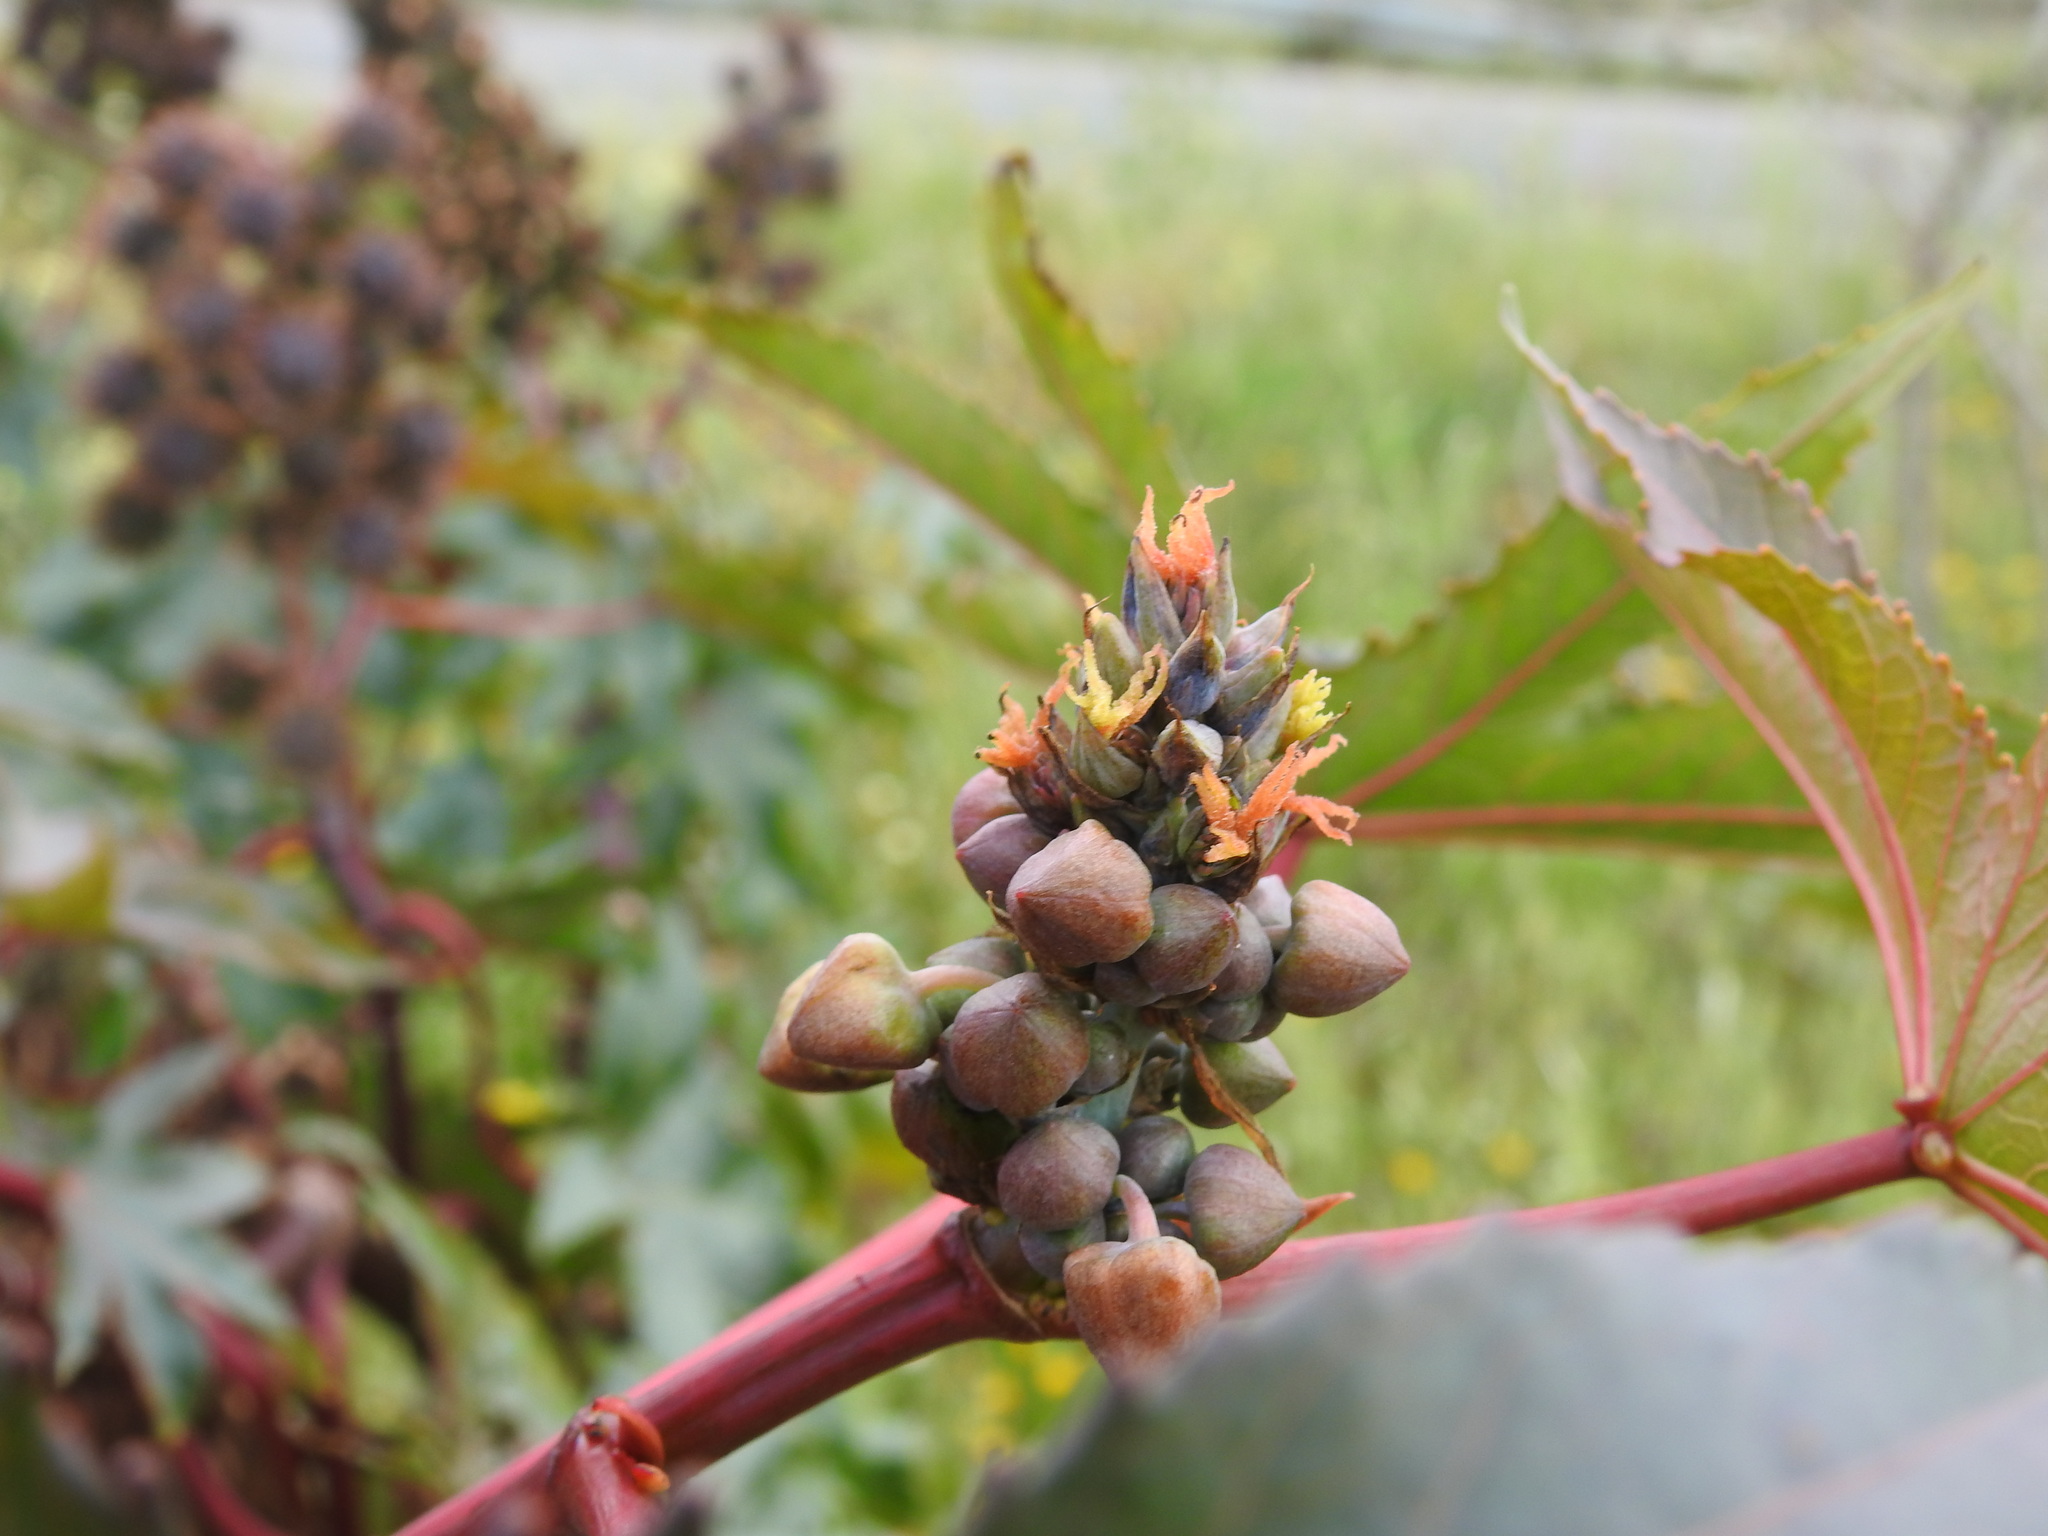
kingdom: Plantae
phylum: Tracheophyta
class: Magnoliopsida
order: Malpighiales
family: Euphorbiaceae
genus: Ricinus
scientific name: Ricinus communis
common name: Castor-oil-plant
